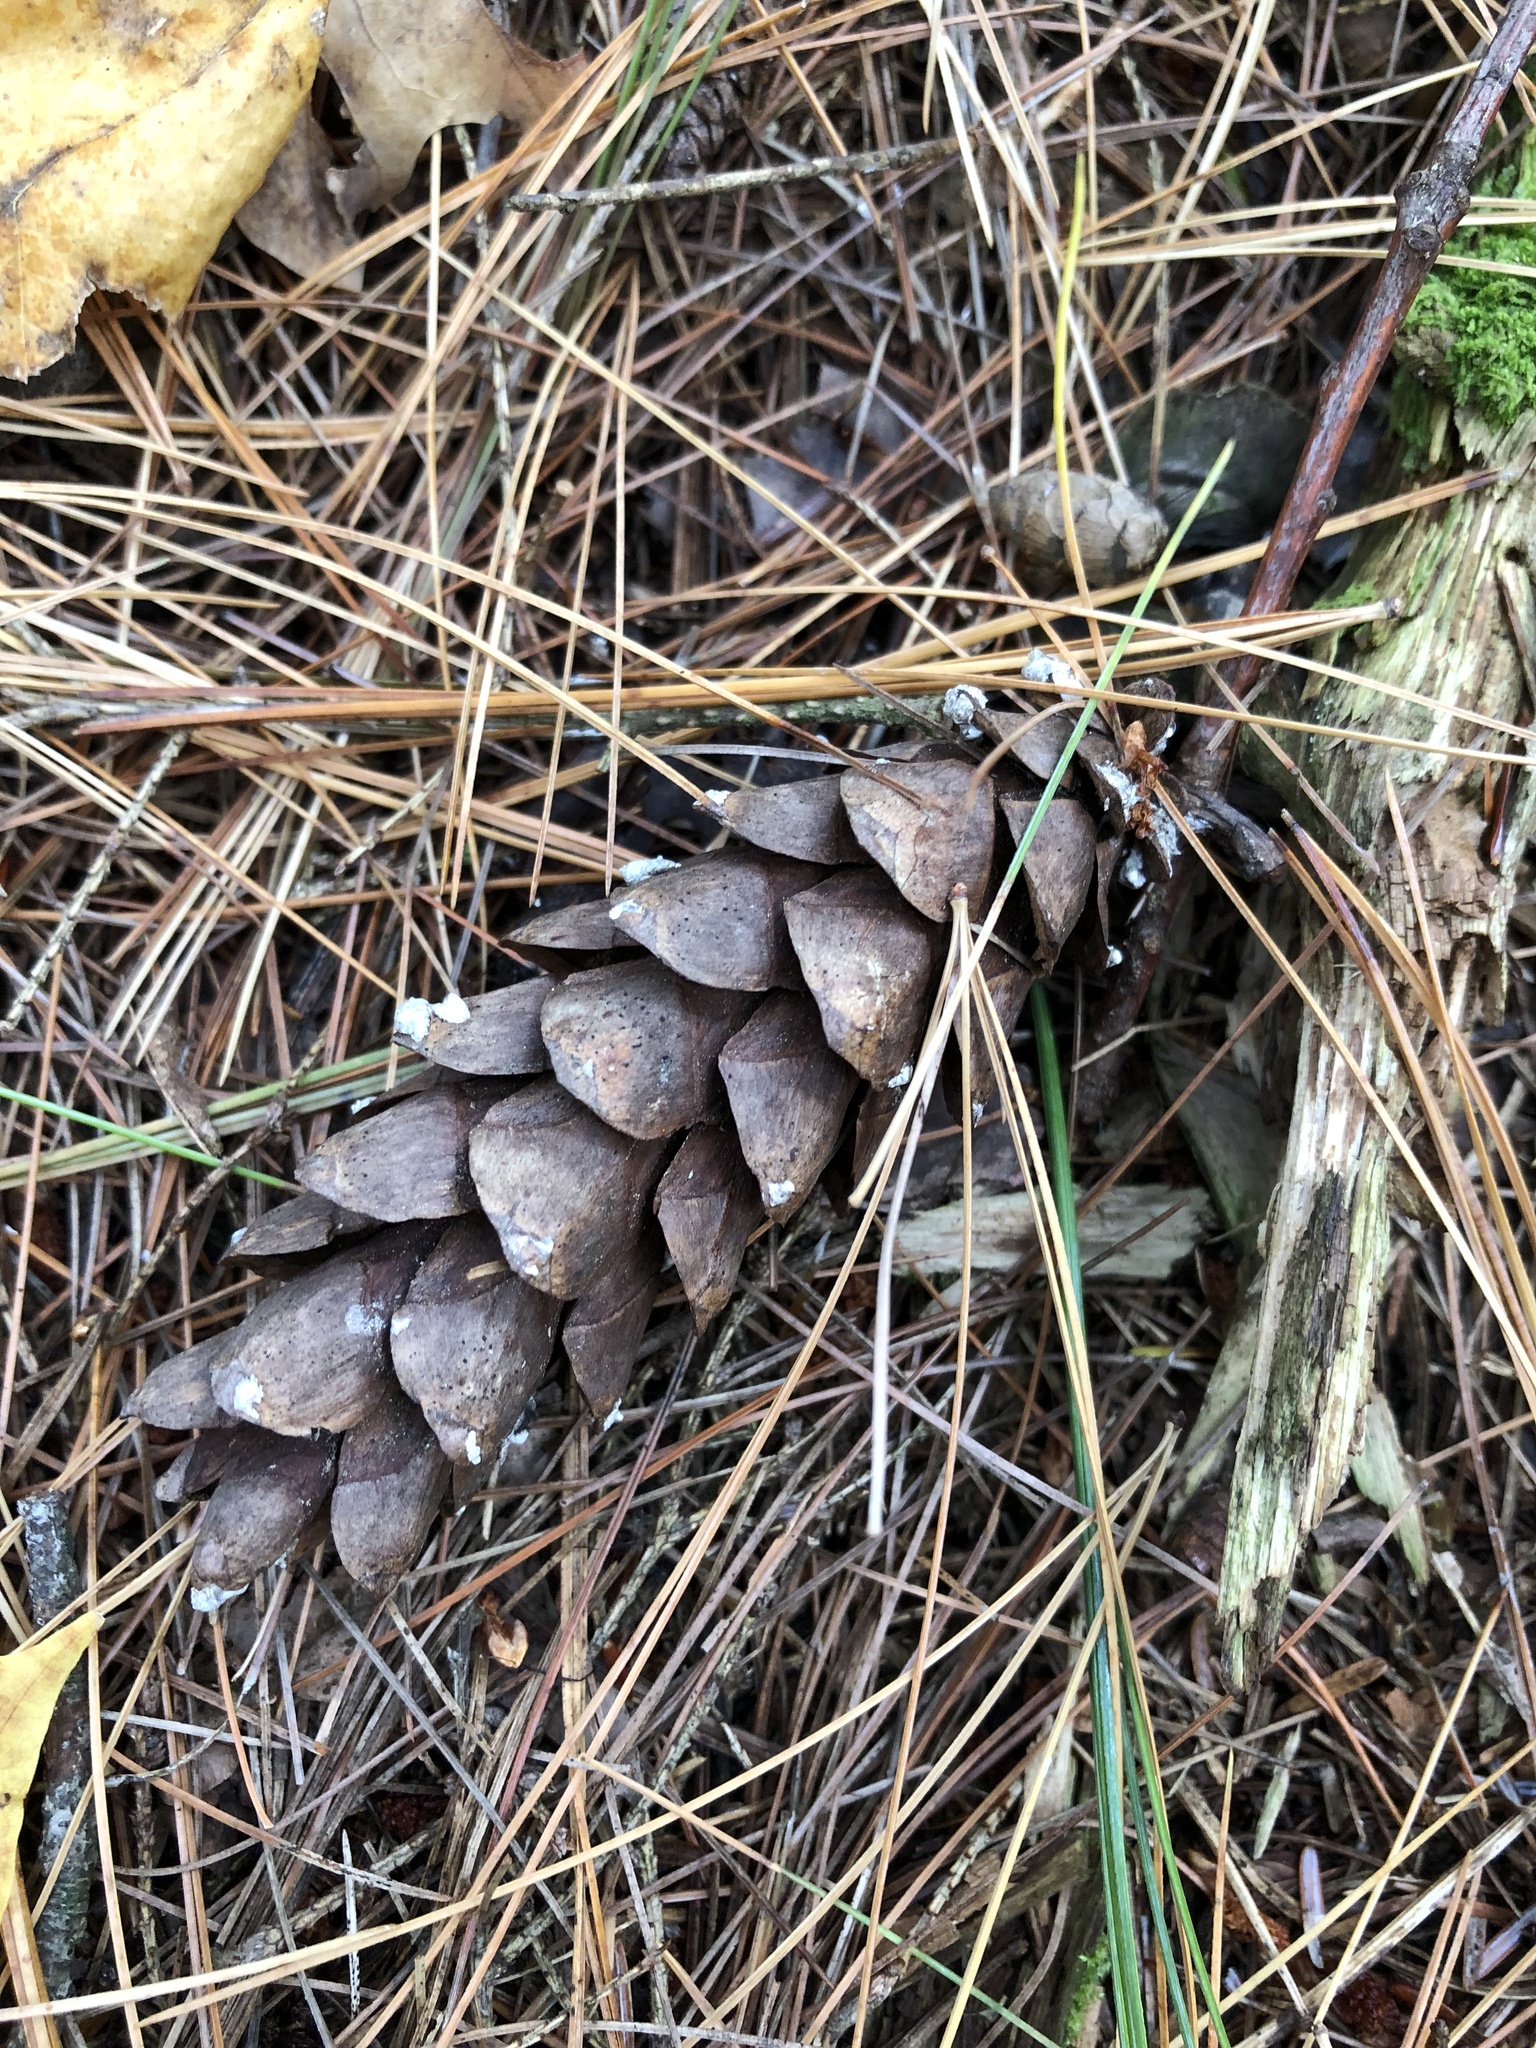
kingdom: Plantae
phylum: Tracheophyta
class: Pinopsida
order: Pinales
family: Pinaceae
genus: Pinus
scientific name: Pinus strobus
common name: Weymouth pine
